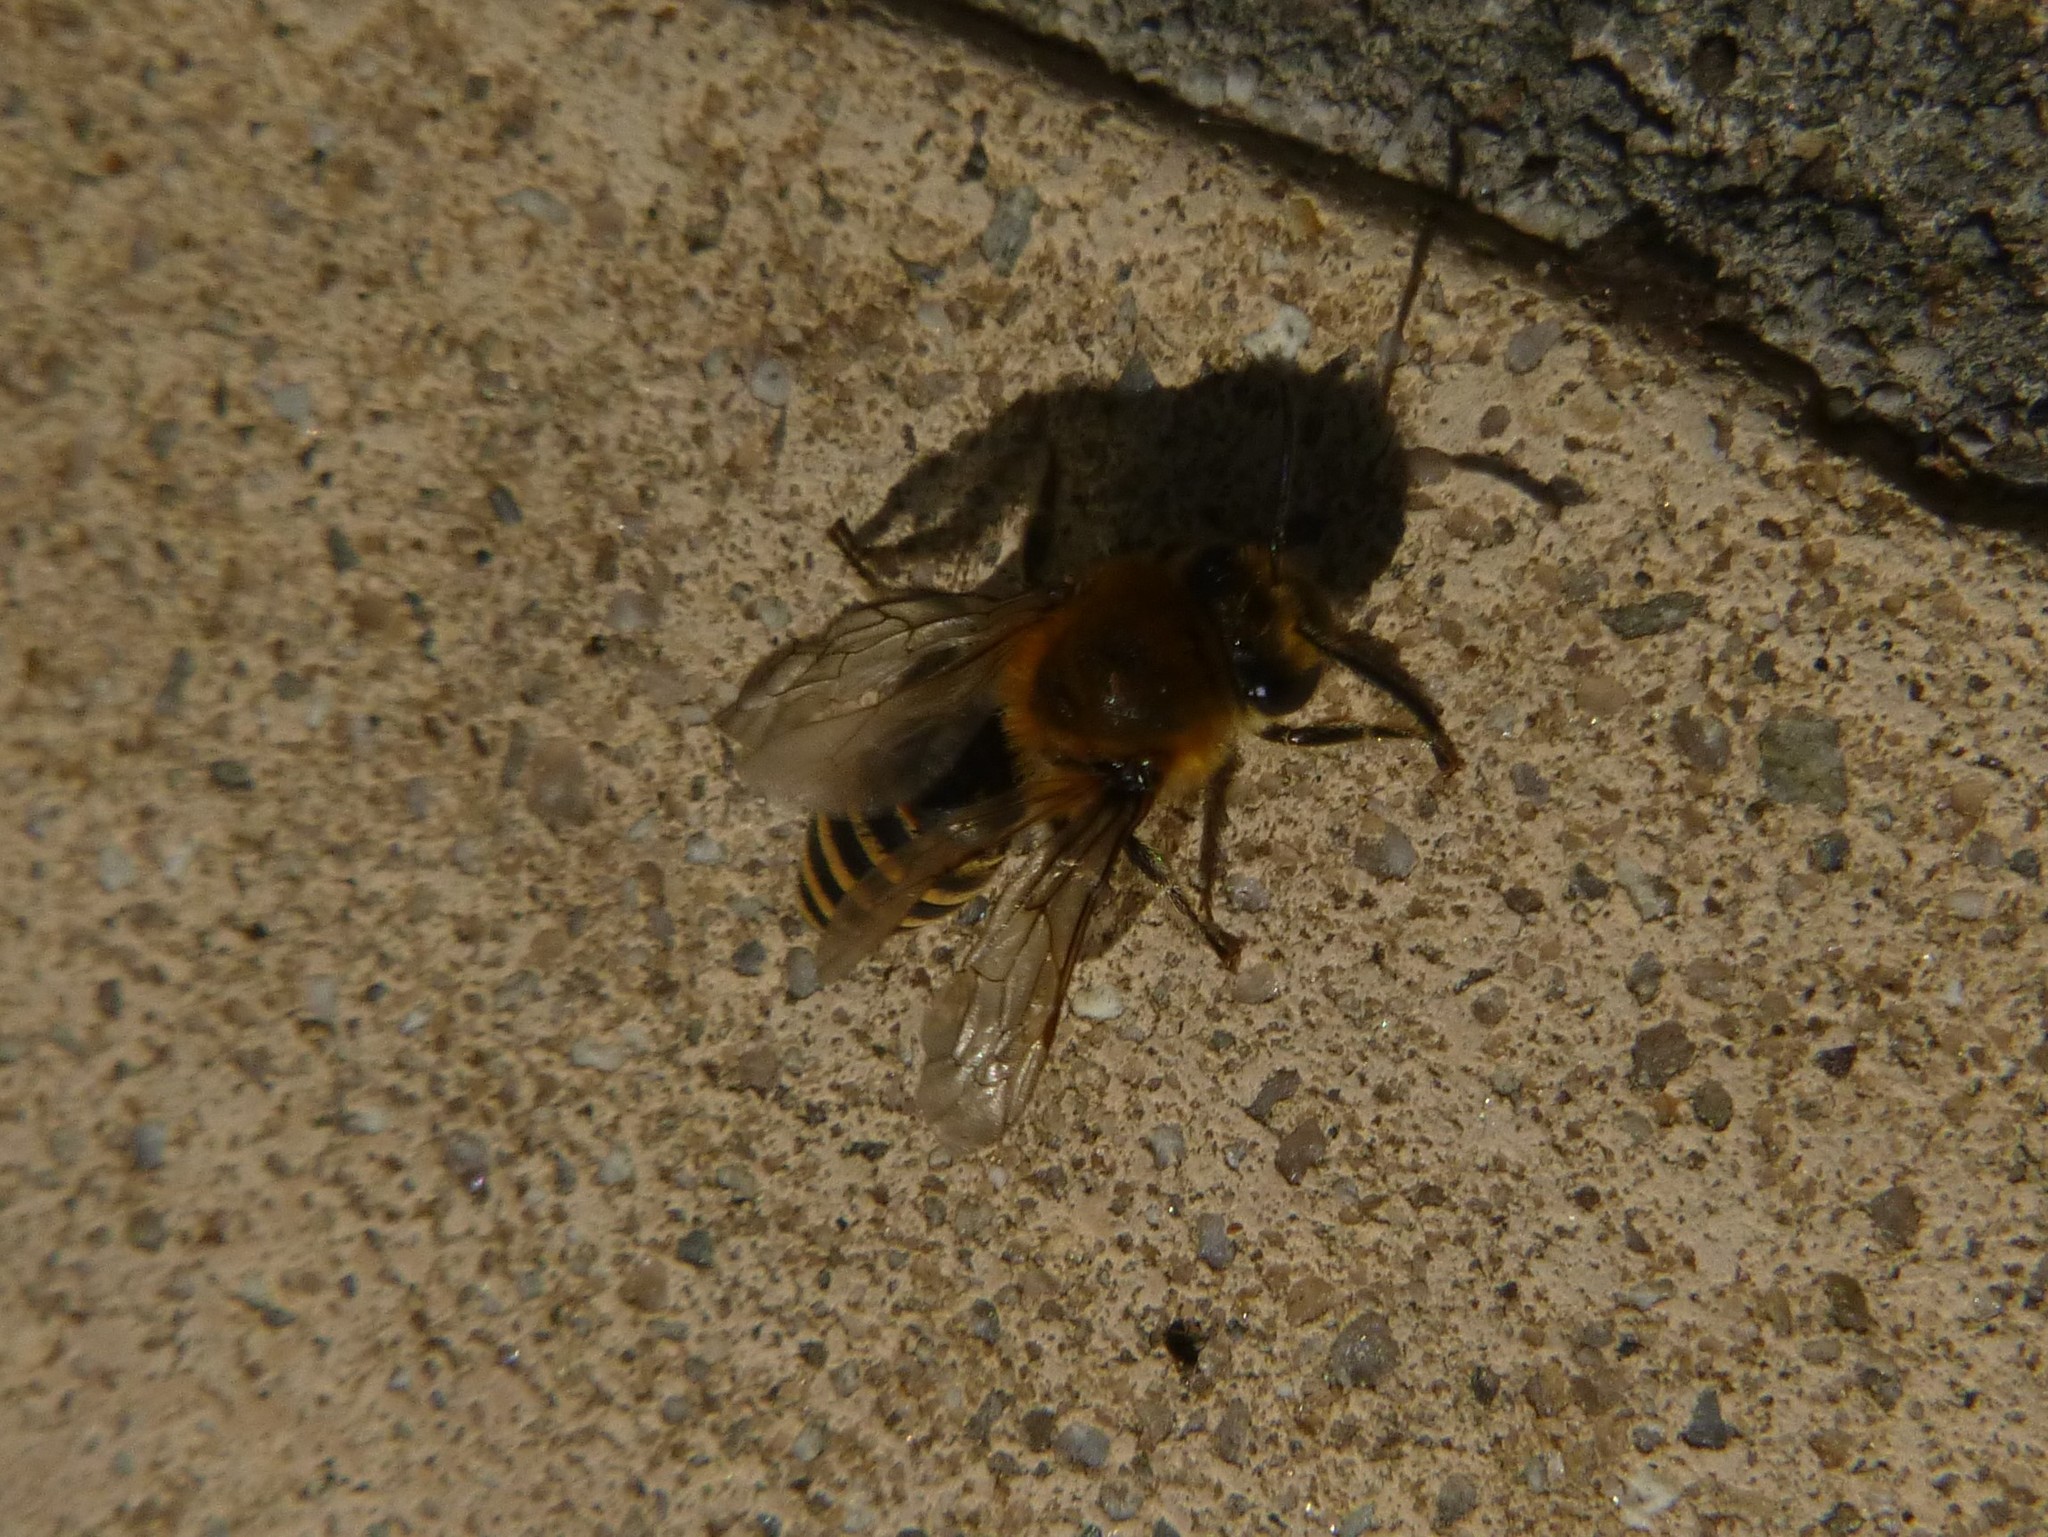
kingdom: Animalia
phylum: Arthropoda
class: Insecta
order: Hymenoptera
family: Colletidae
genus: Colletes
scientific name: Colletes hederae
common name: Ivy bee
